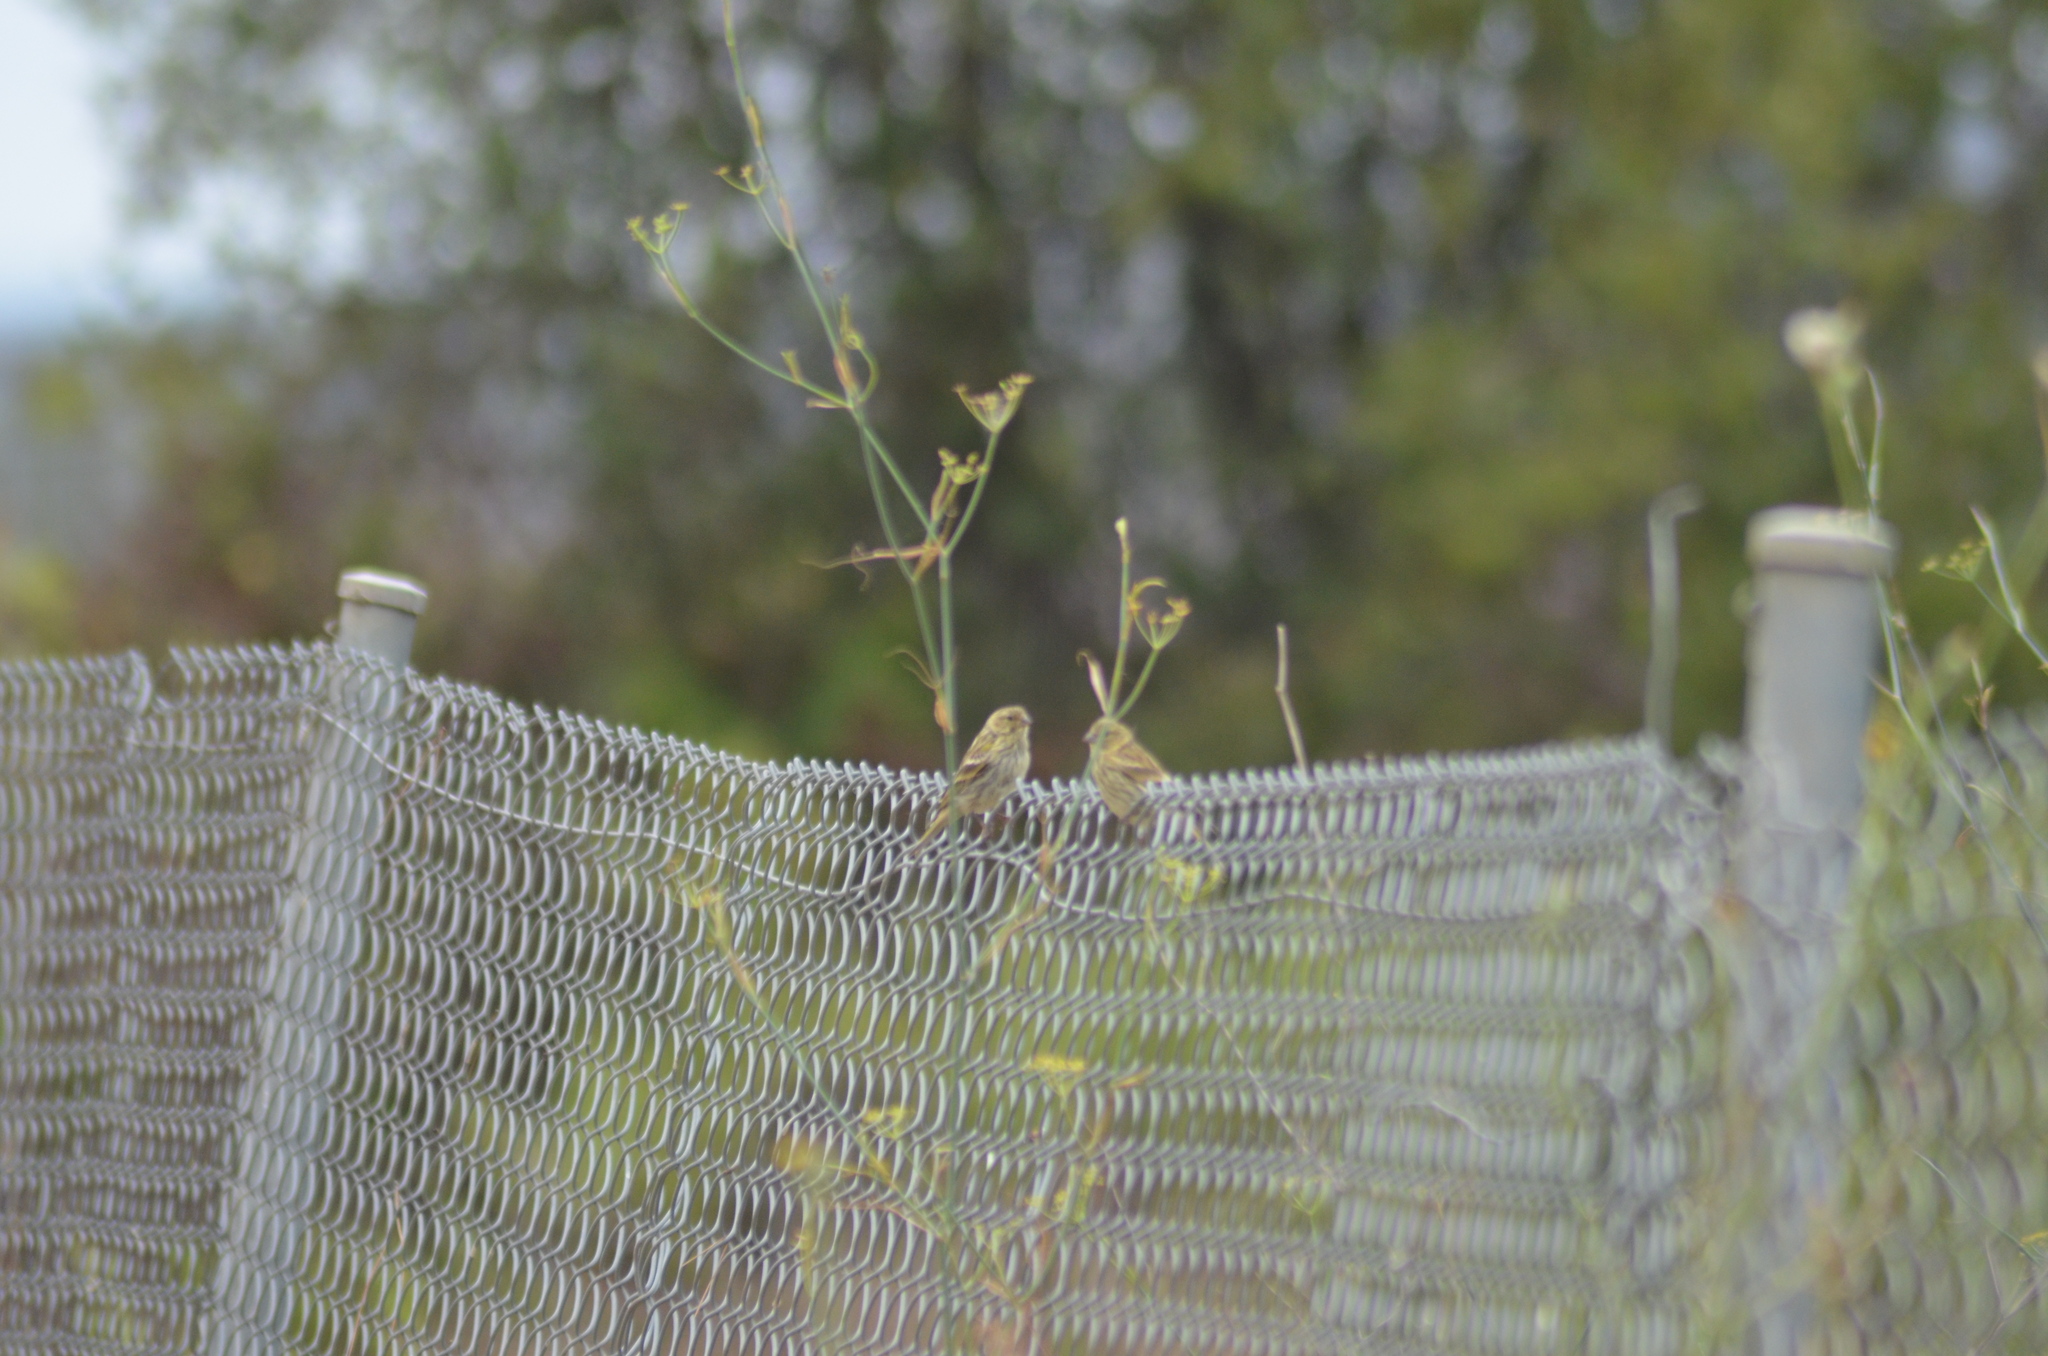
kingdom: Animalia
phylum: Chordata
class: Aves
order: Passeriformes
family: Fringillidae
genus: Serinus
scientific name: Serinus serinus
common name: European serin
